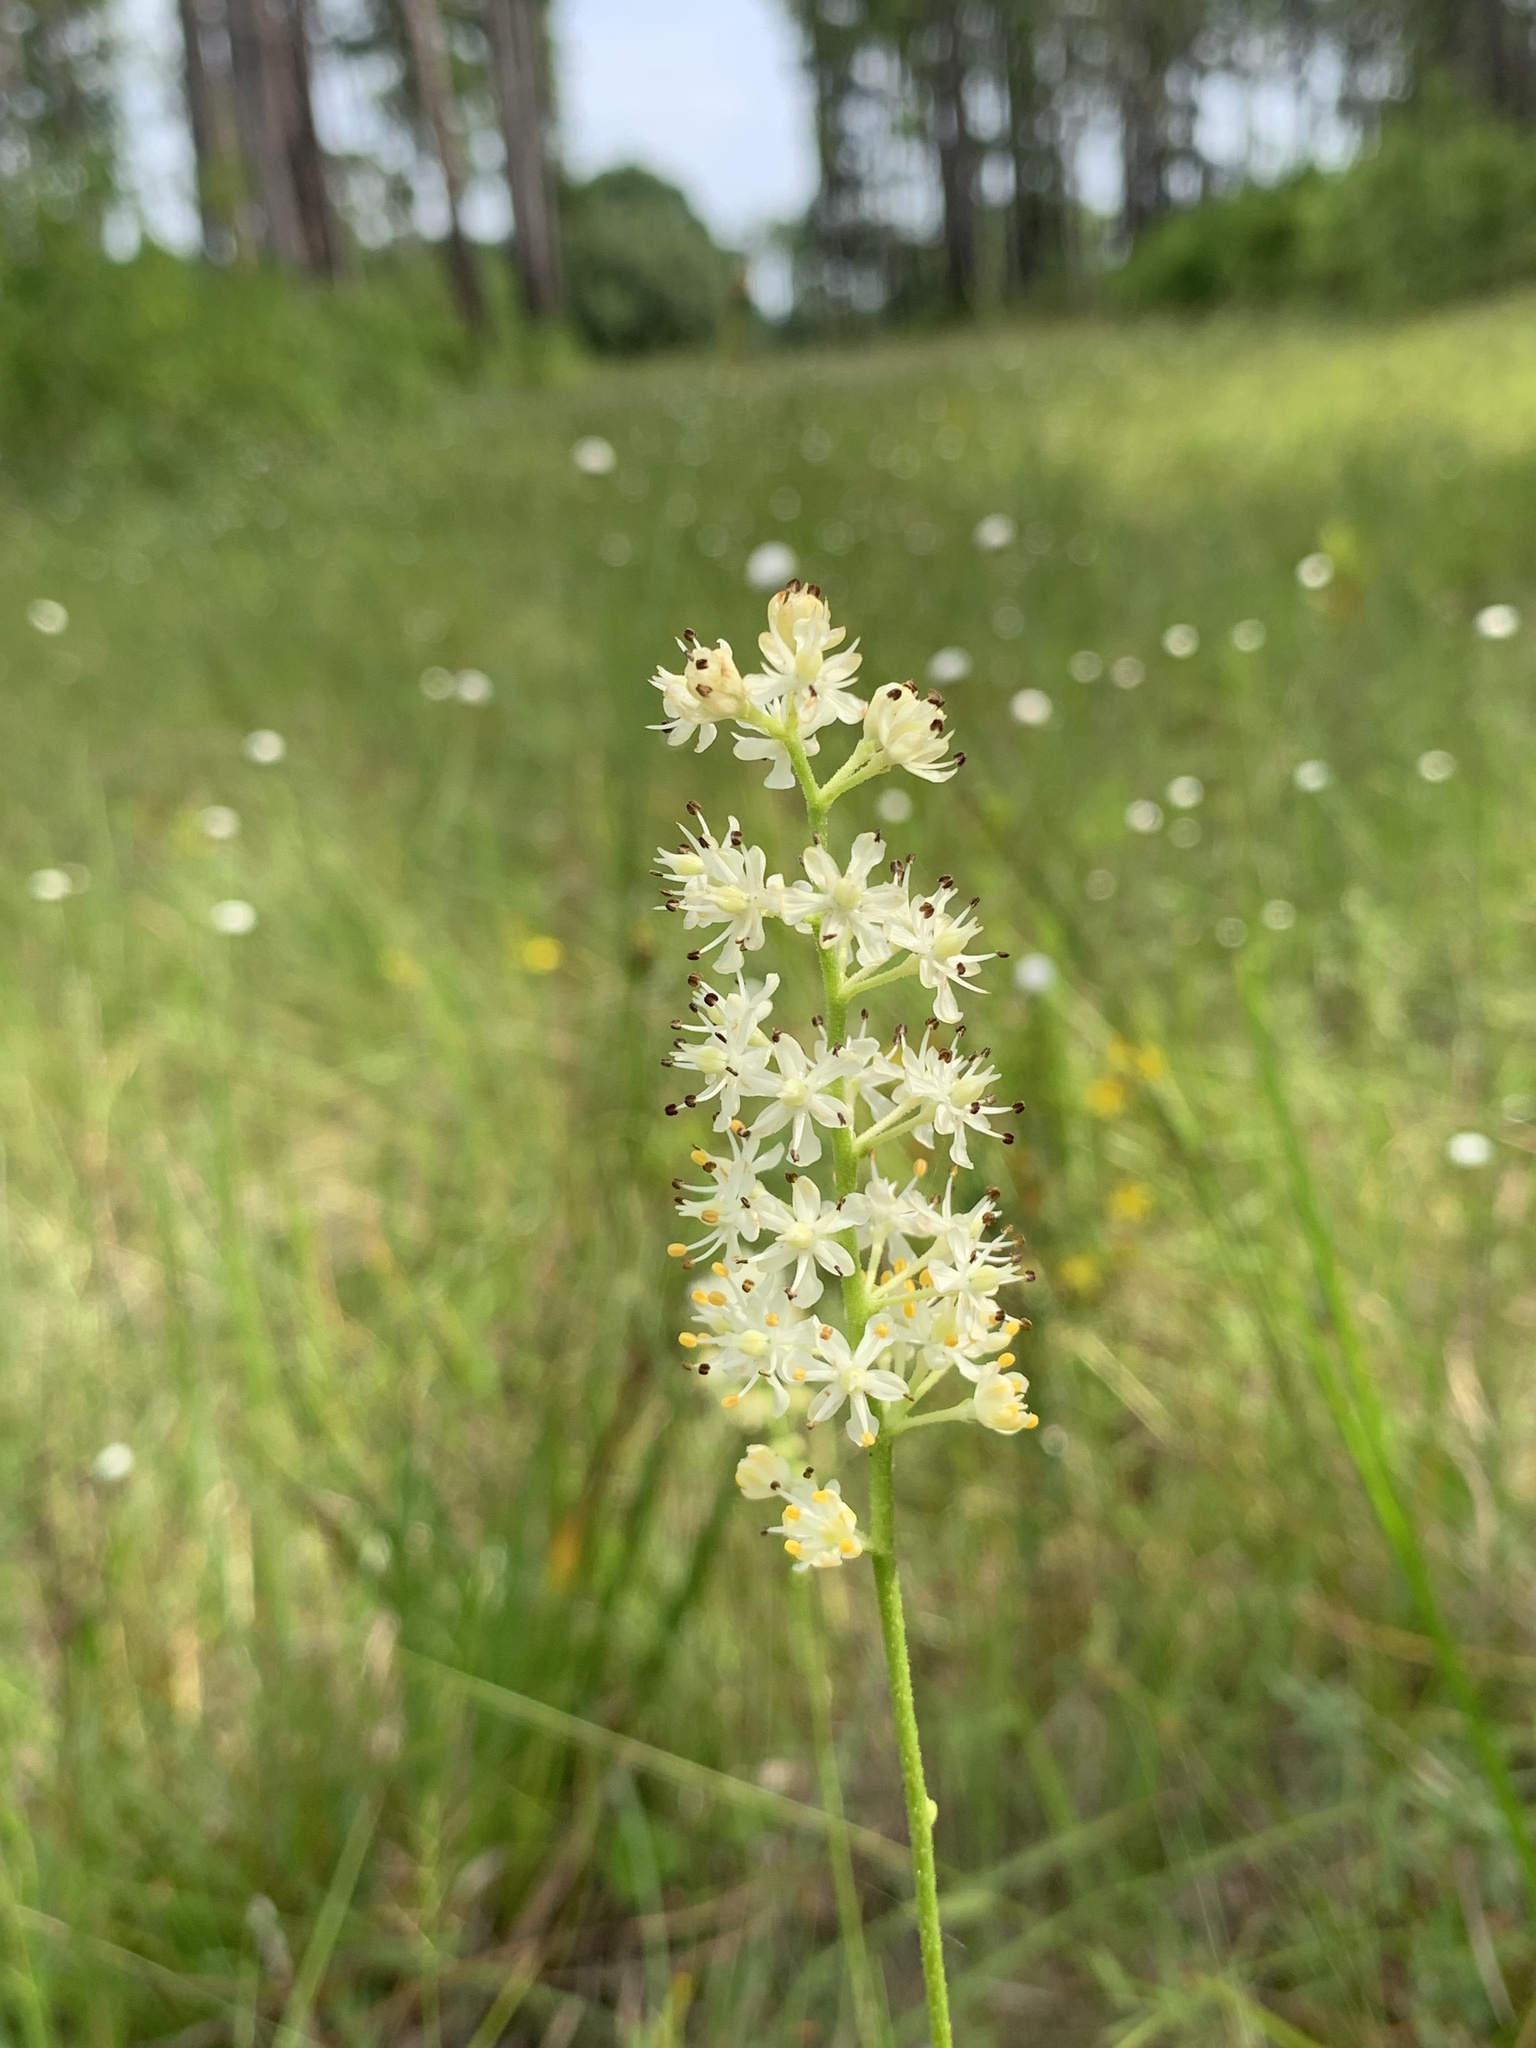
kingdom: Plantae
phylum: Tracheophyta
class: Liliopsida
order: Alismatales
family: Tofieldiaceae
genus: Triantha
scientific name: Triantha racemosa
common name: Coastal false asphodel
